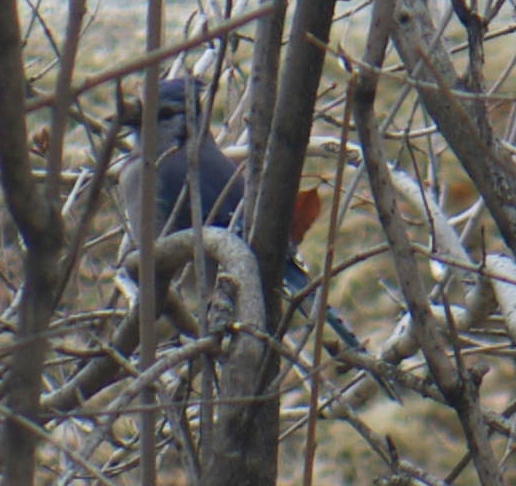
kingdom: Animalia
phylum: Chordata
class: Aves
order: Passeriformes
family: Corvidae
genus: Cyanocitta
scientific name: Cyanocitta cristata
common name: Blue jay
